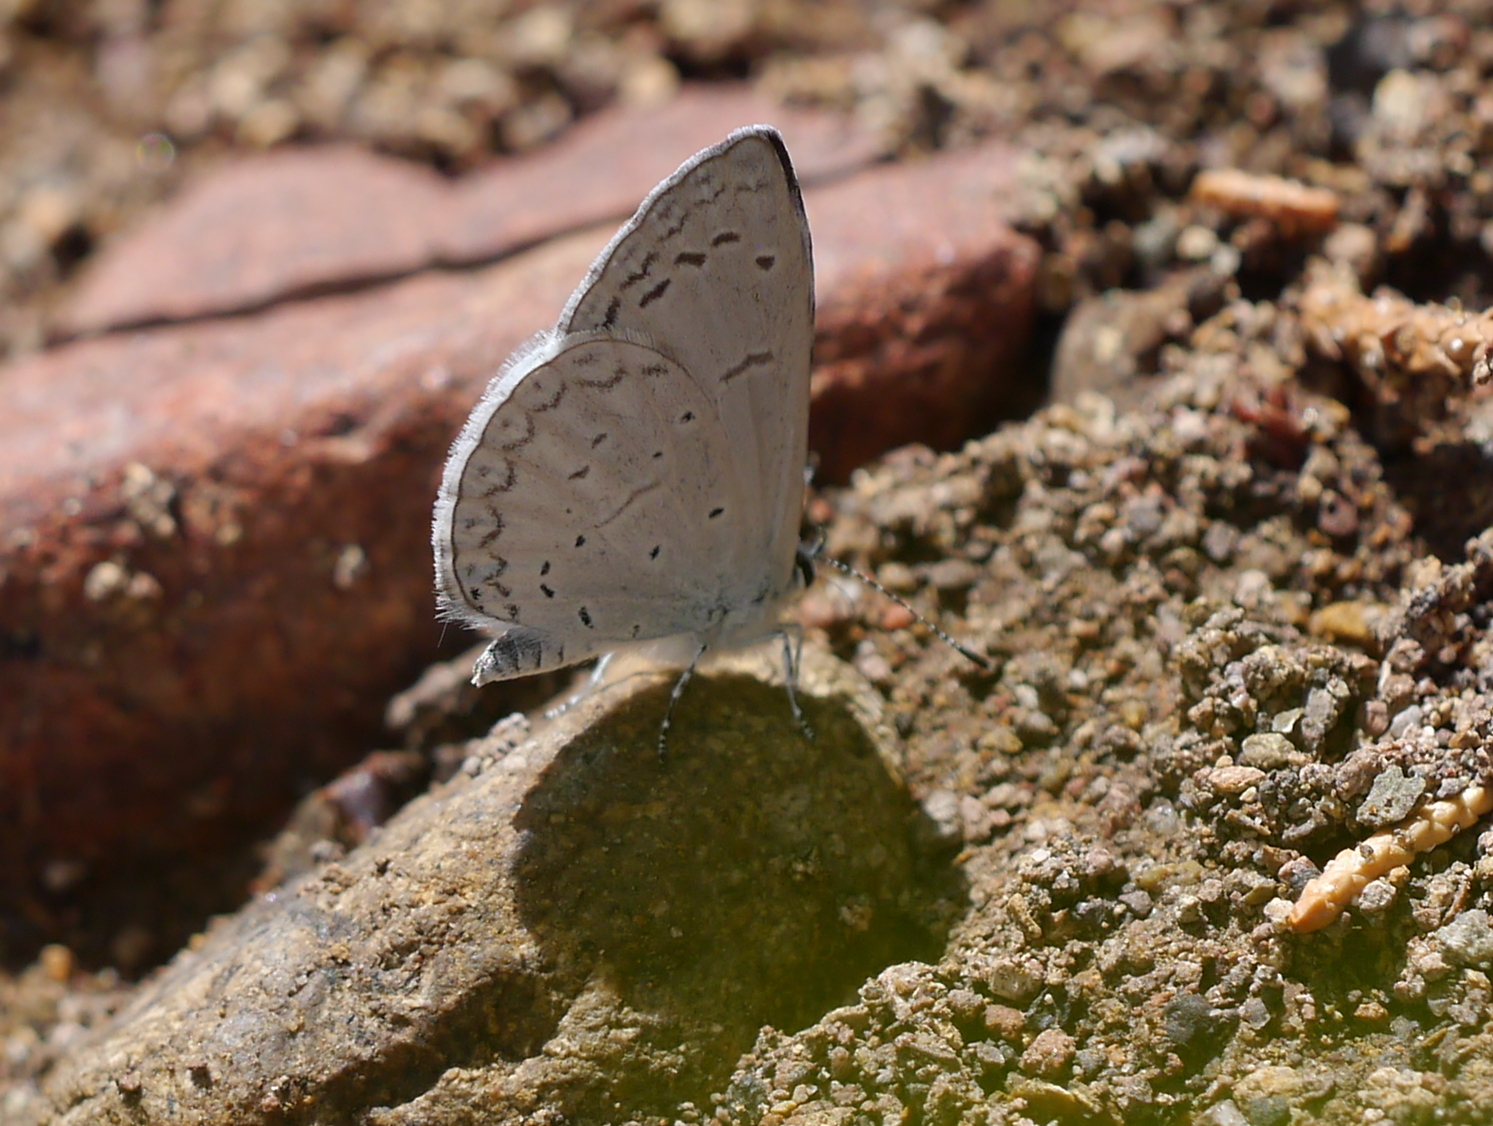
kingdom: Animalia
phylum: Arthropoda
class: Insecta
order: Lepidoptera
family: Lycaenidae
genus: Celastrina
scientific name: Celastrina ladon
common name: Spring azure
